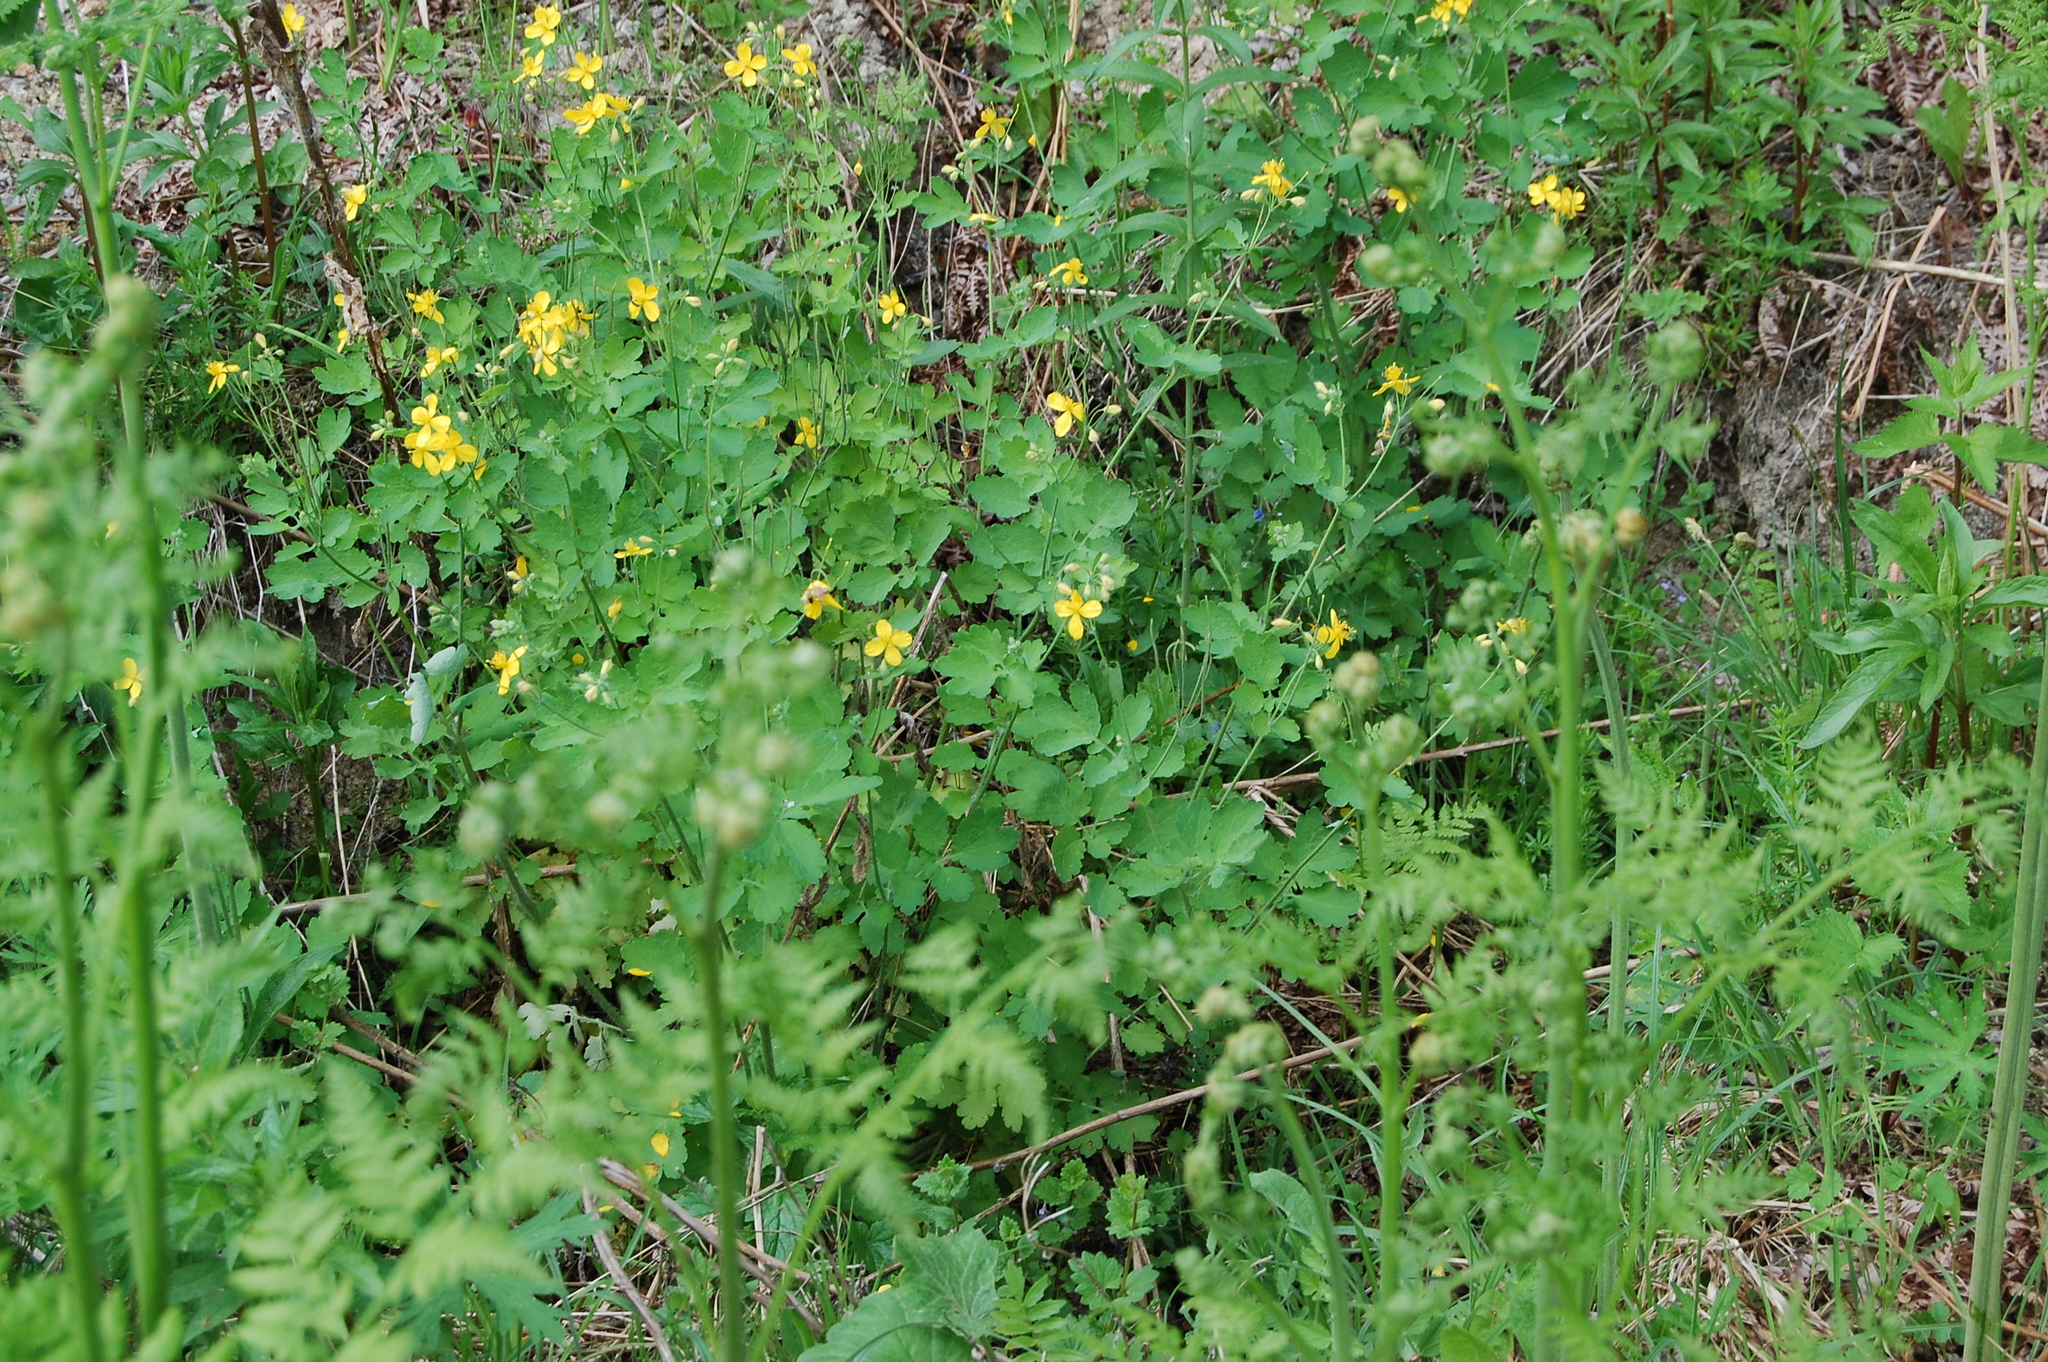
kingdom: Plantae
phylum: Tracheophyta
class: Magnoliopsida
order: Ranunculales
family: Papaveraceae
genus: Chelidonium
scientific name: Chelidonium majus
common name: Greater celandine
